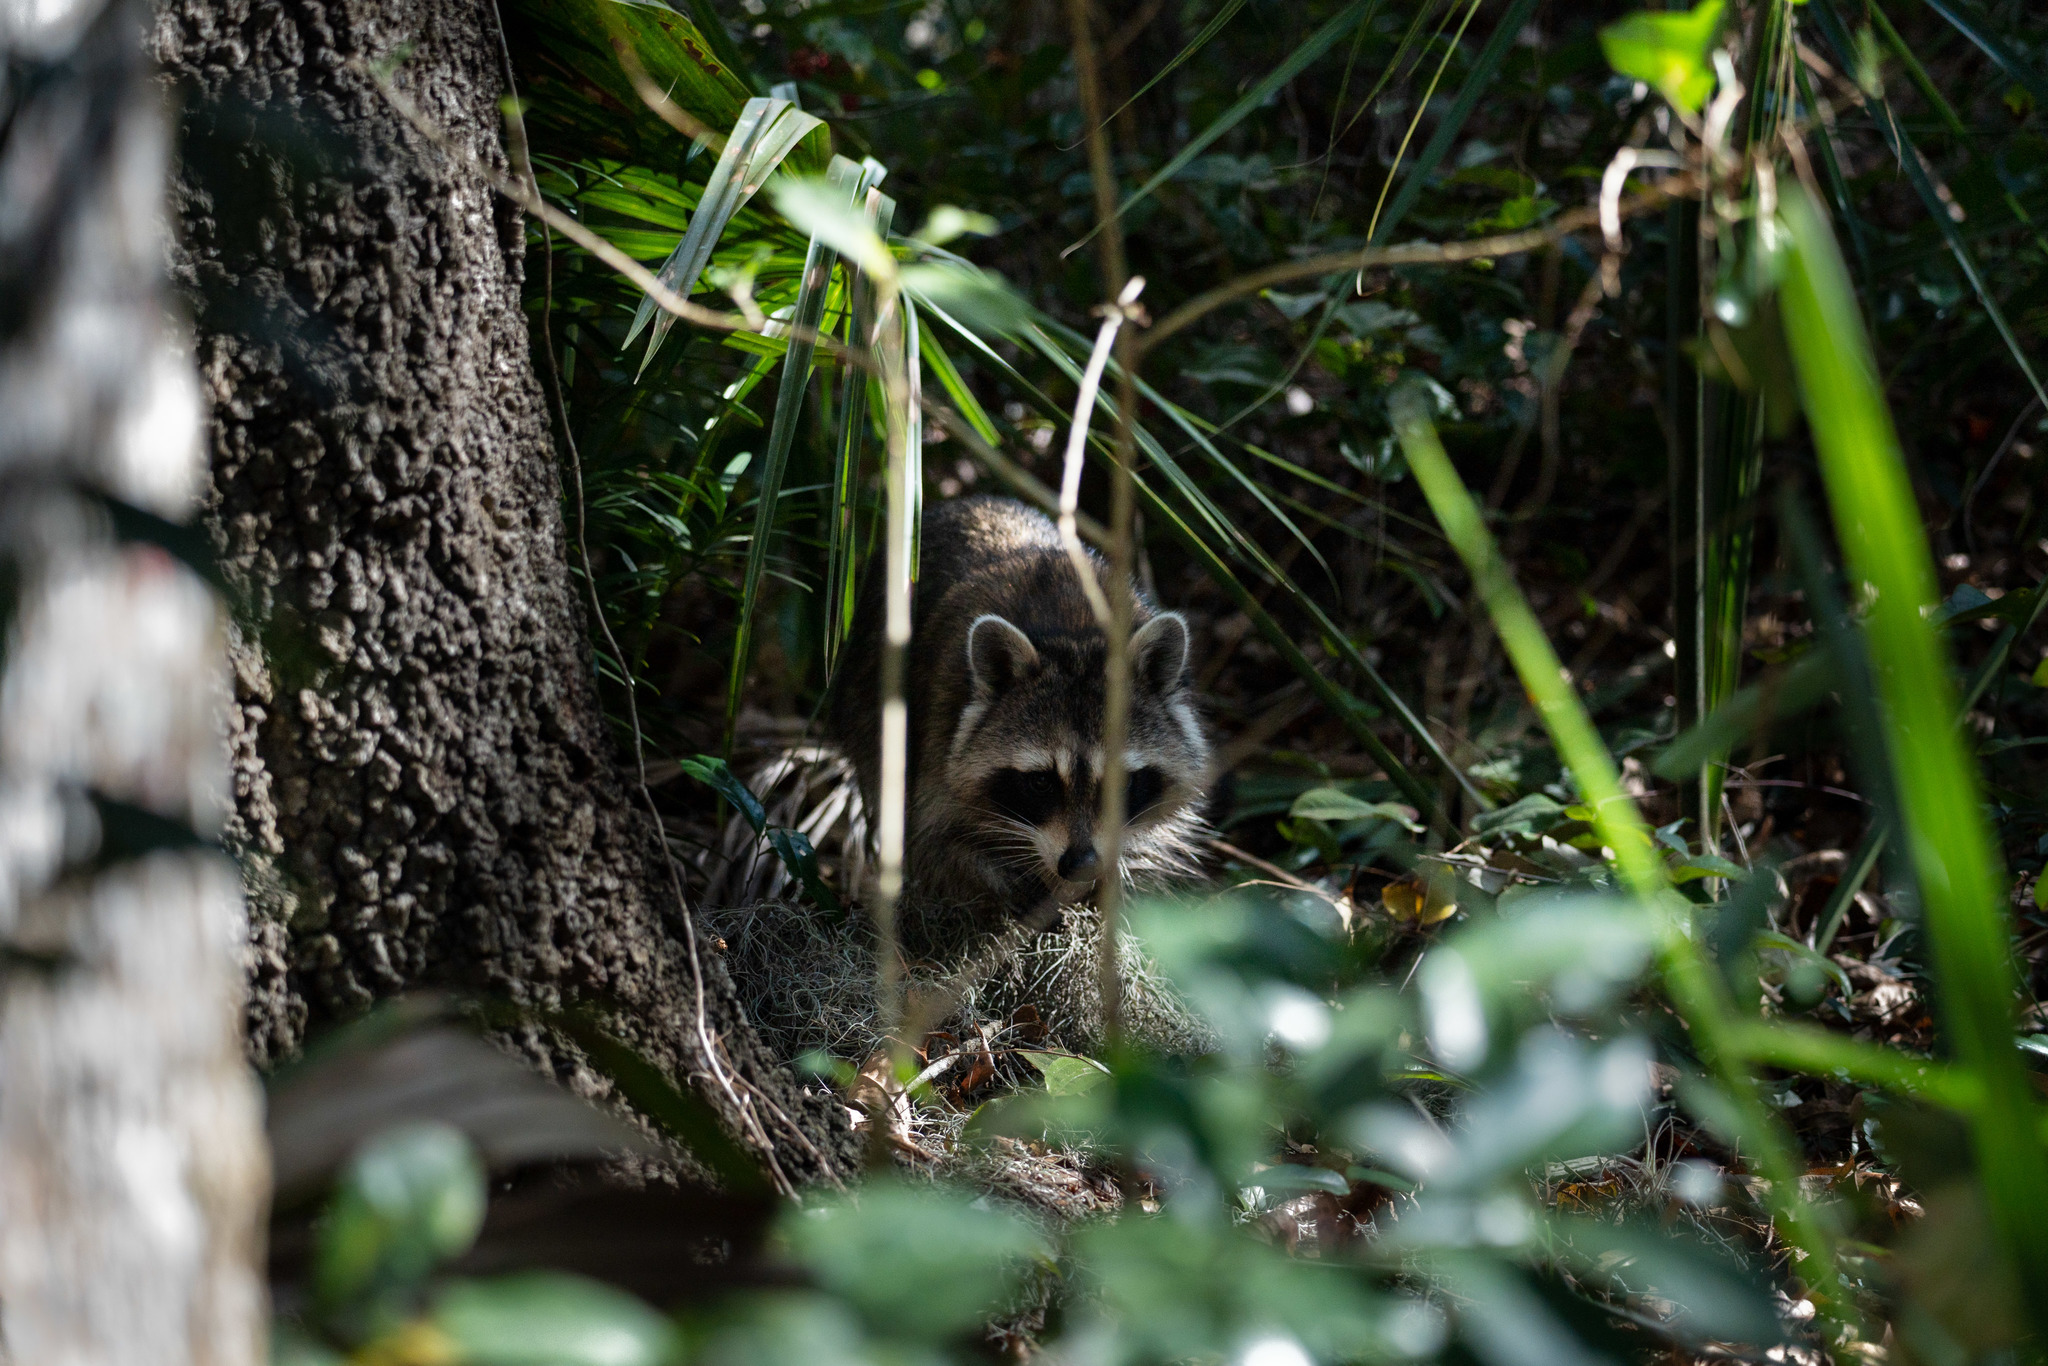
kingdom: Animalia
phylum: Chordata
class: Mammalia
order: Carnivora
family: Procyonidae
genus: Procyon
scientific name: Procyon lotor
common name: Raccoon
